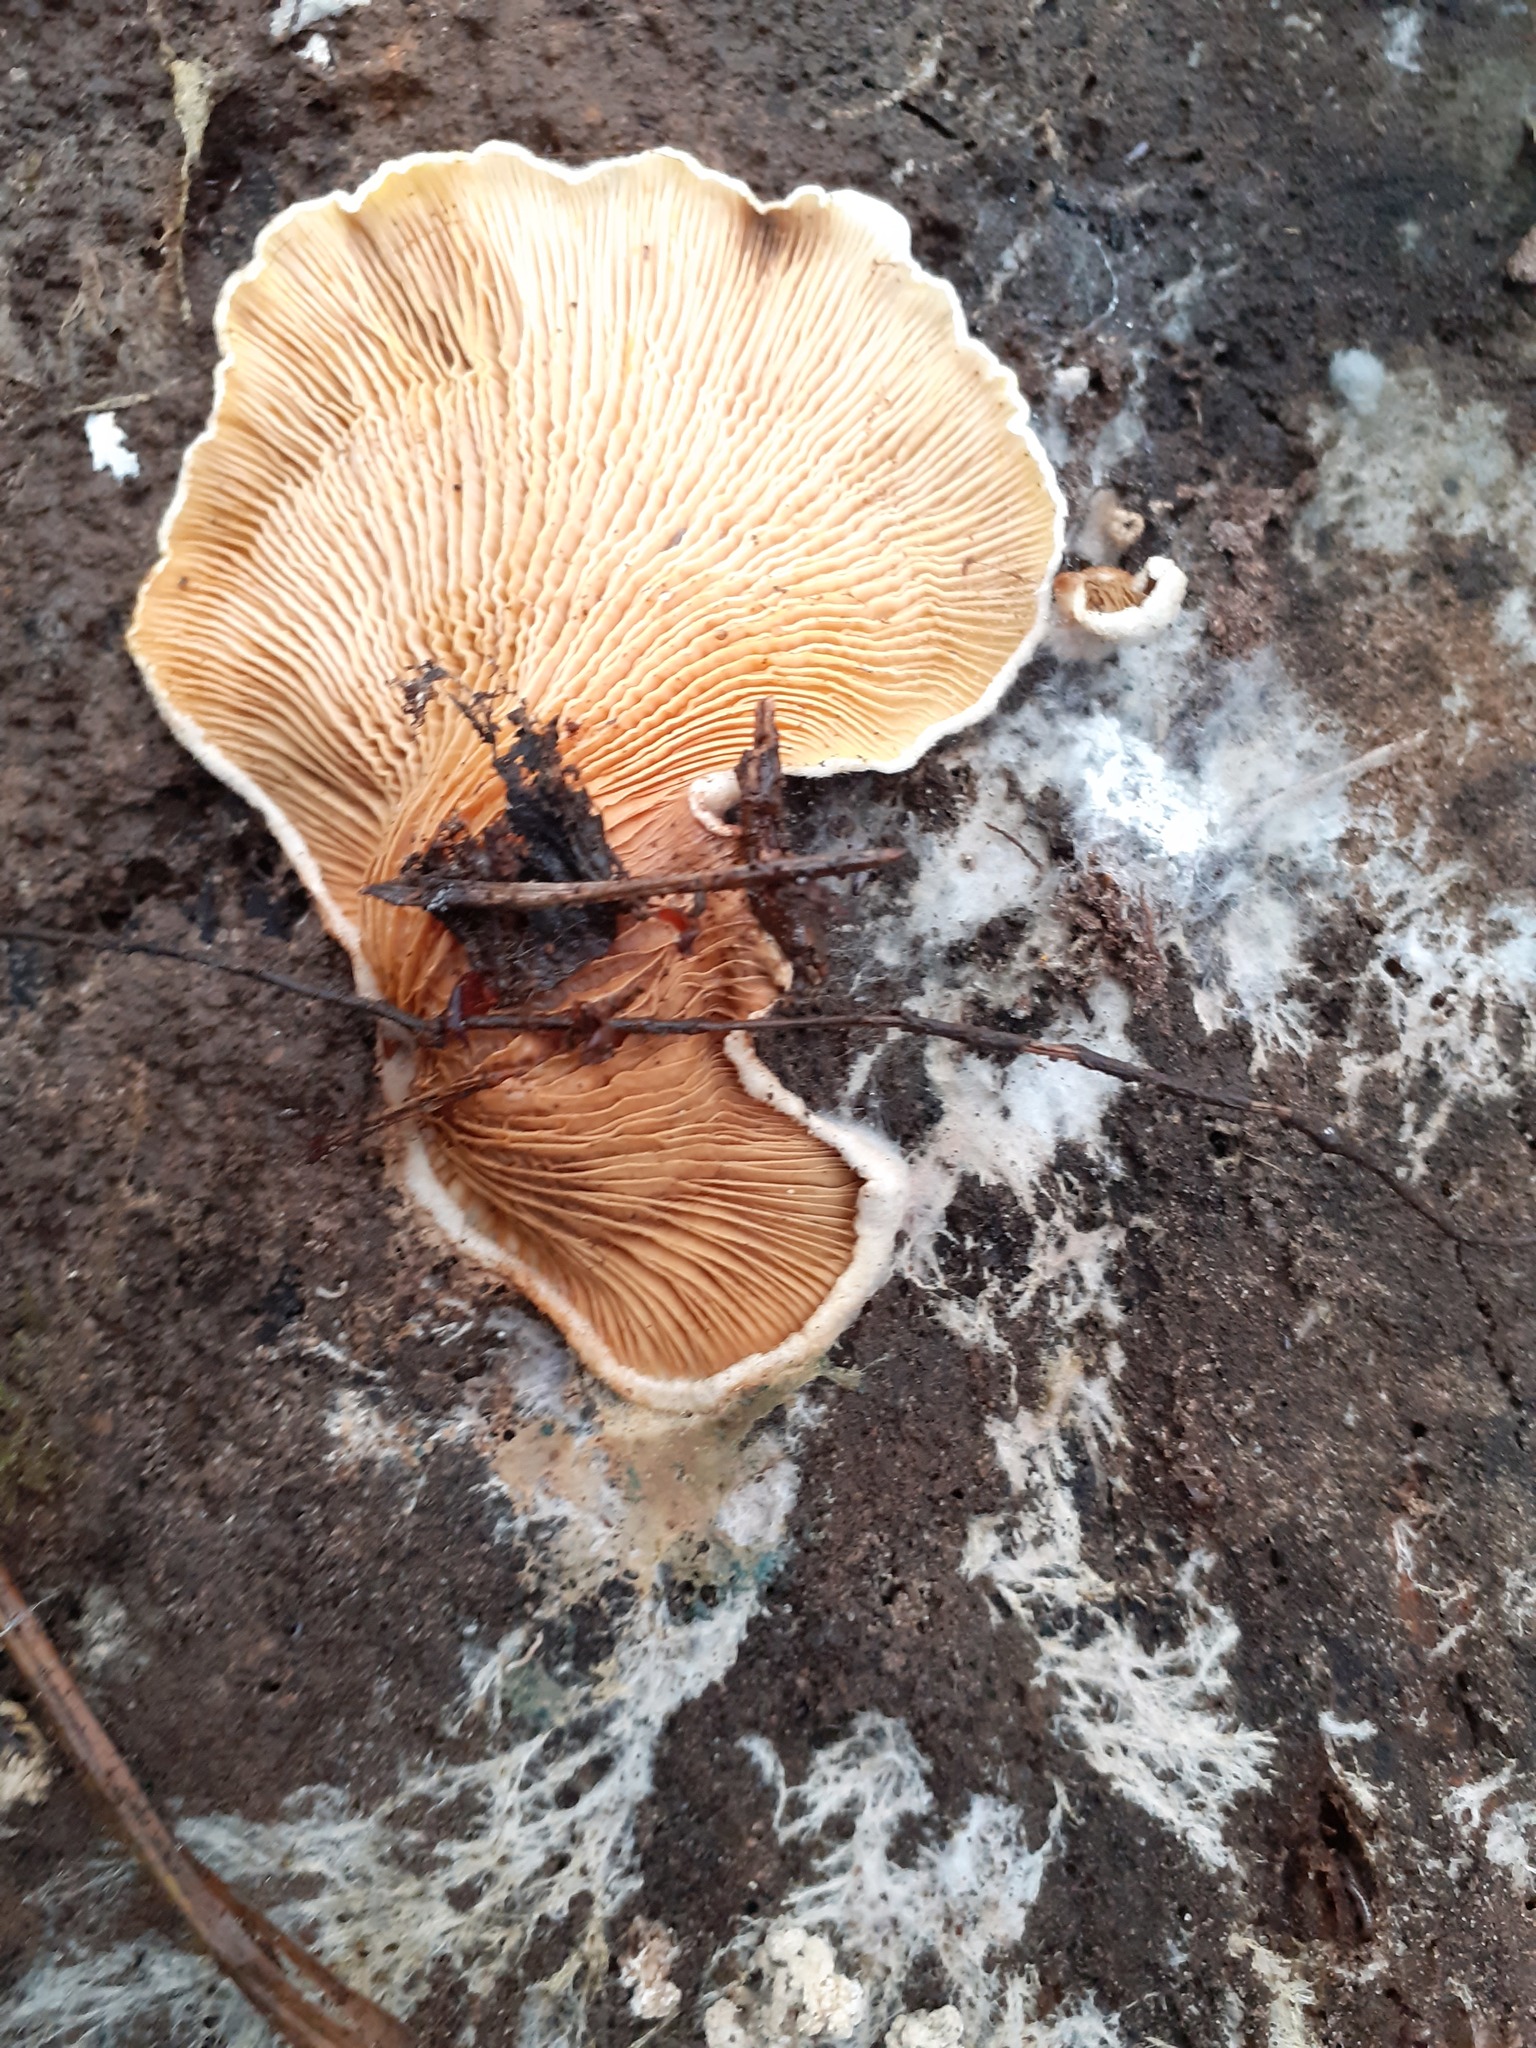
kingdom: Fungi
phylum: Basidiomycota
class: Agaricomycetes
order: Boletales
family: Tapinellaceae
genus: Tapinella
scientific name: Tapinella panuoides
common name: Oyster rollrim
